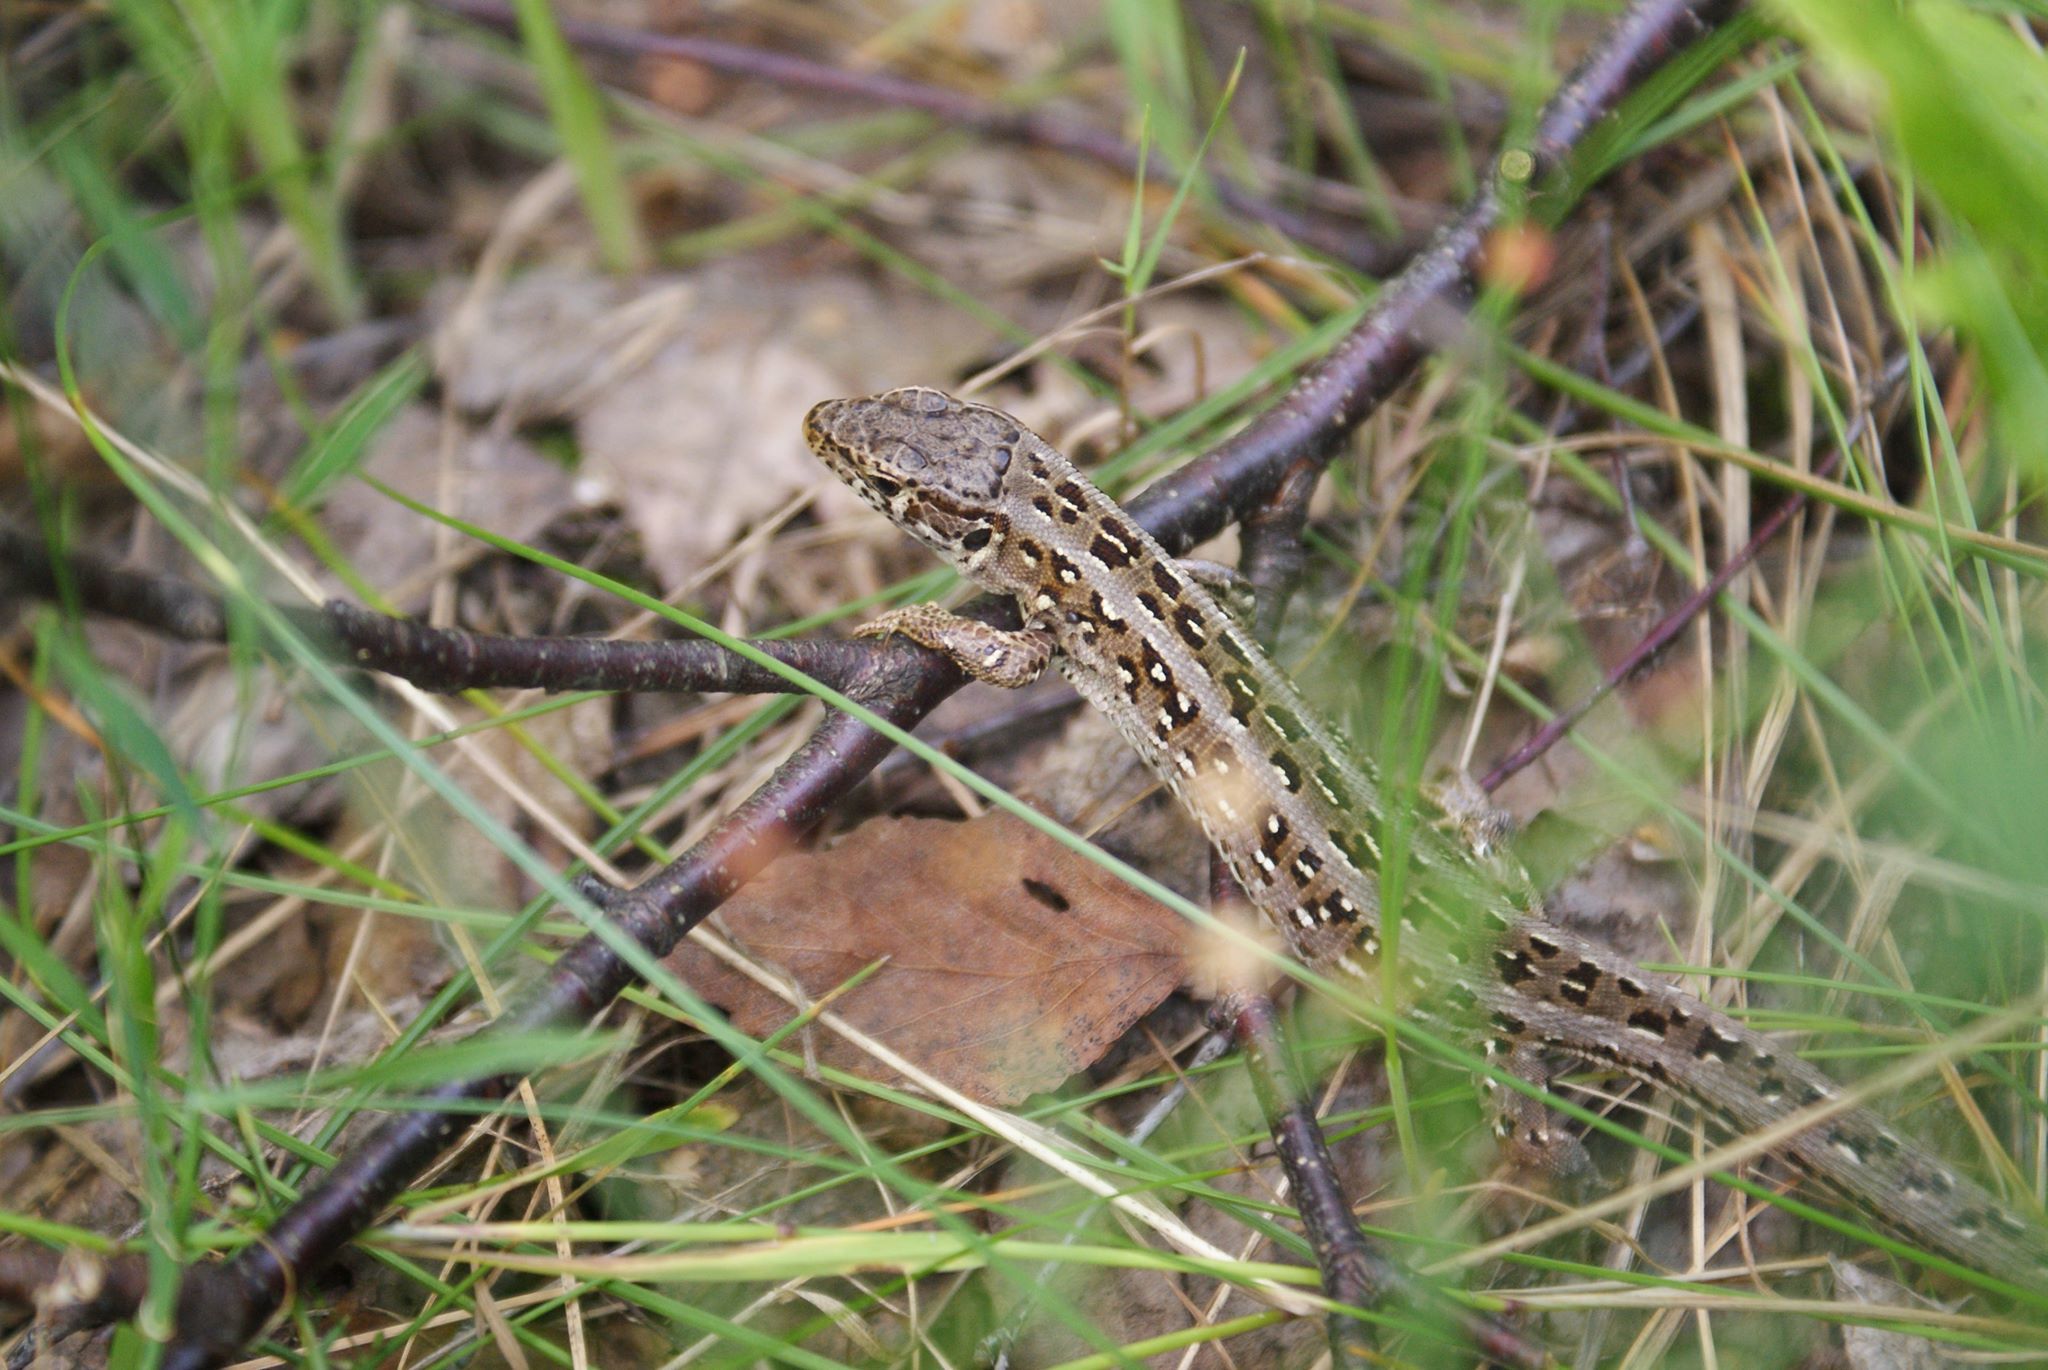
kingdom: Animalia
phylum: Chordata
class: Squamata
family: Lacertidae
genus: Lacerta
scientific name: Lacerta agilis
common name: Sand lizard
